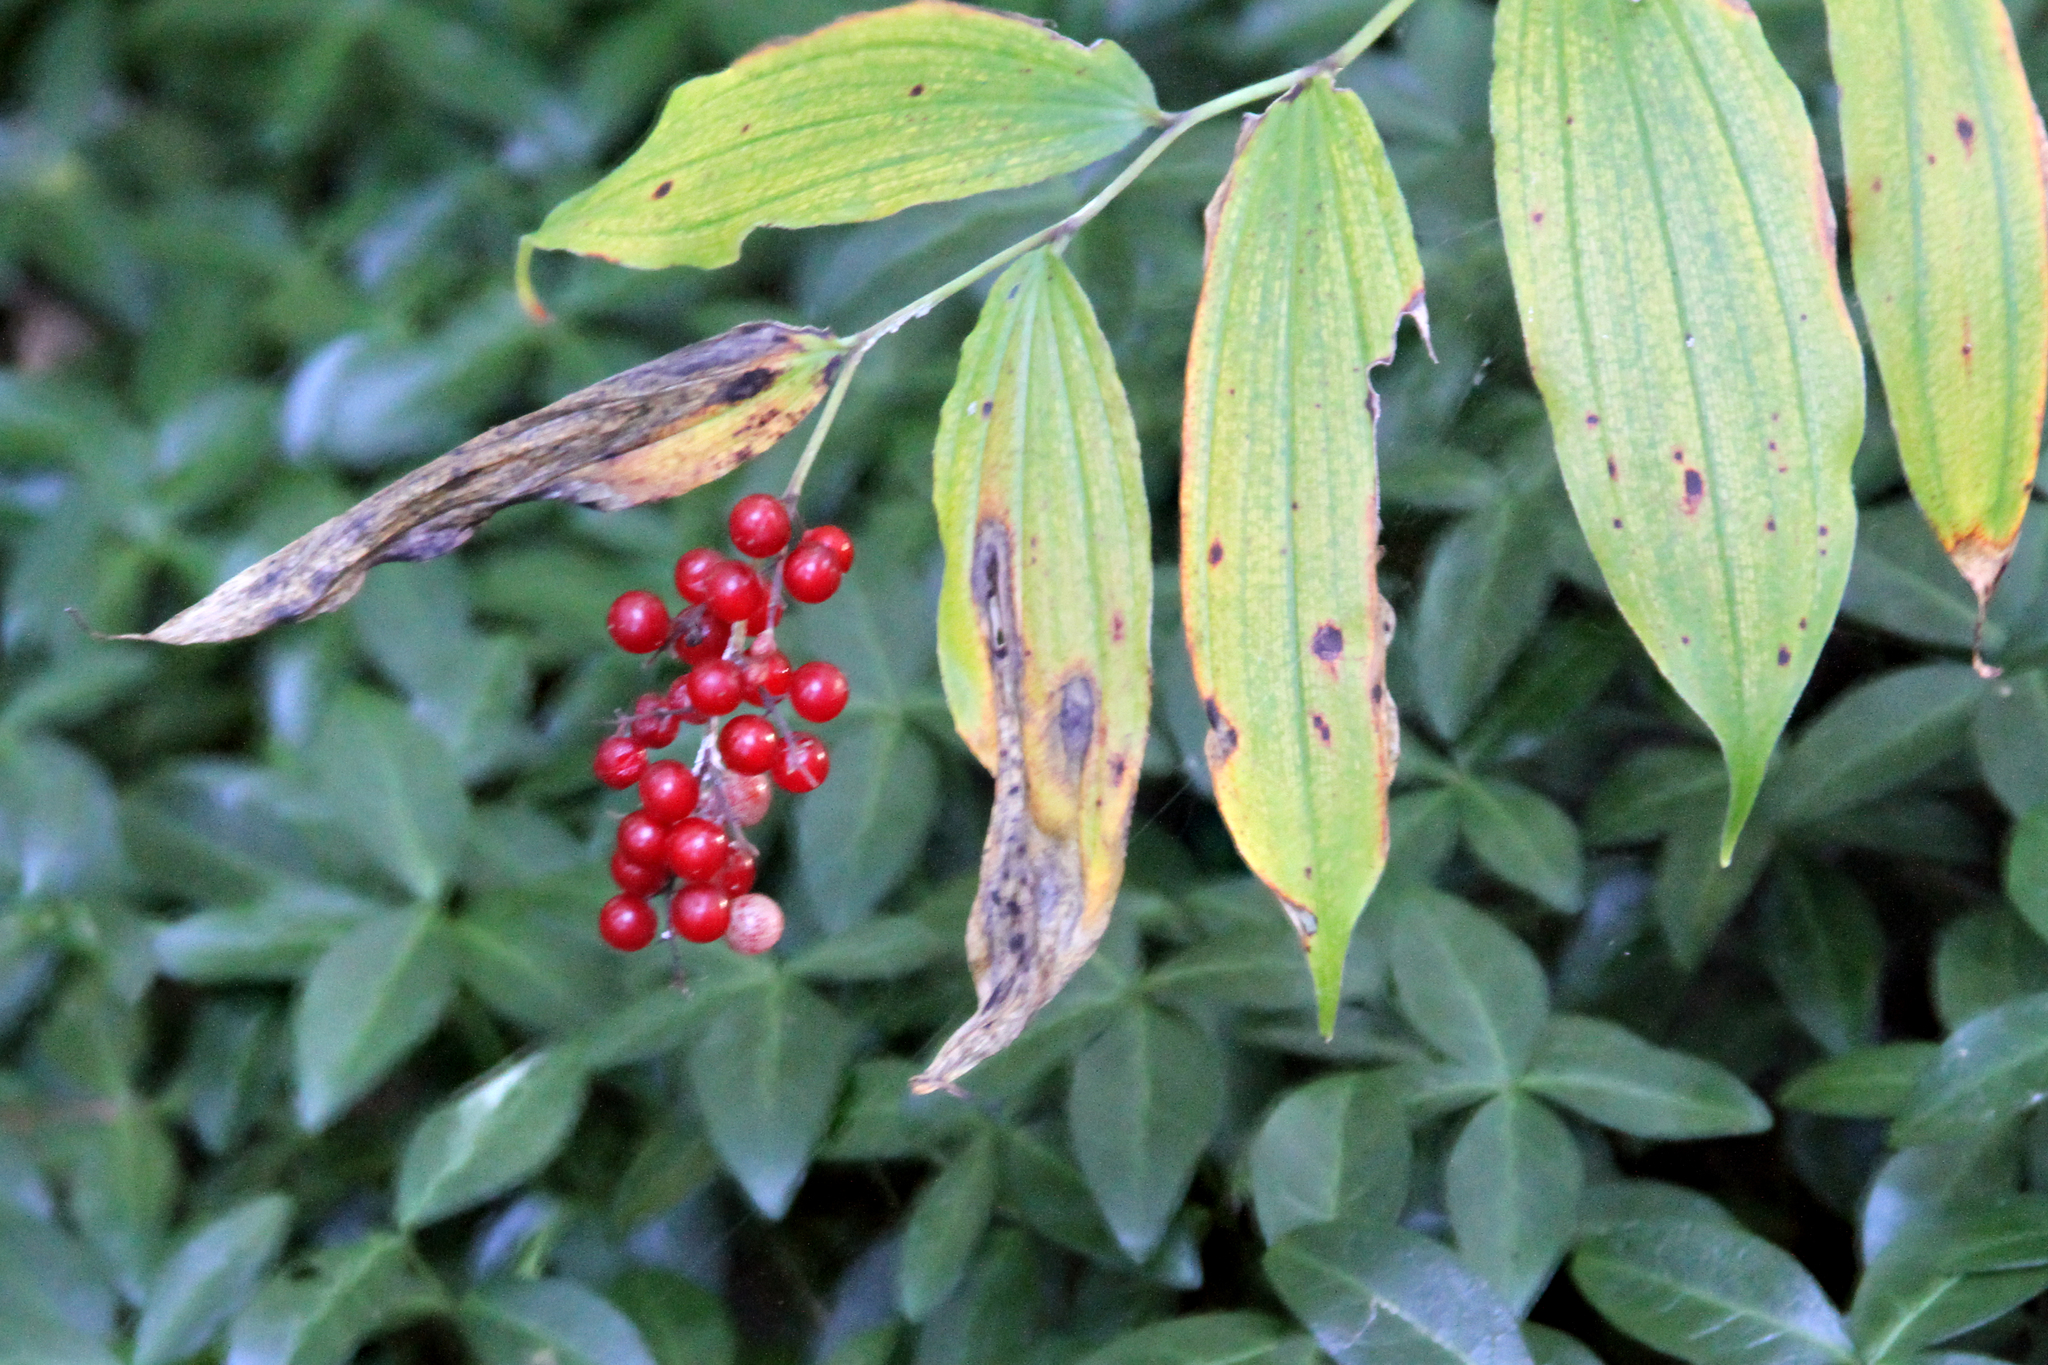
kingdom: Plantae
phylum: Tracheophyta
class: Liliopsida
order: Asparagales
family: Asparagaceae
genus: Maianthemum
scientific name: Maianthemum racemosum
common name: False spikenard
